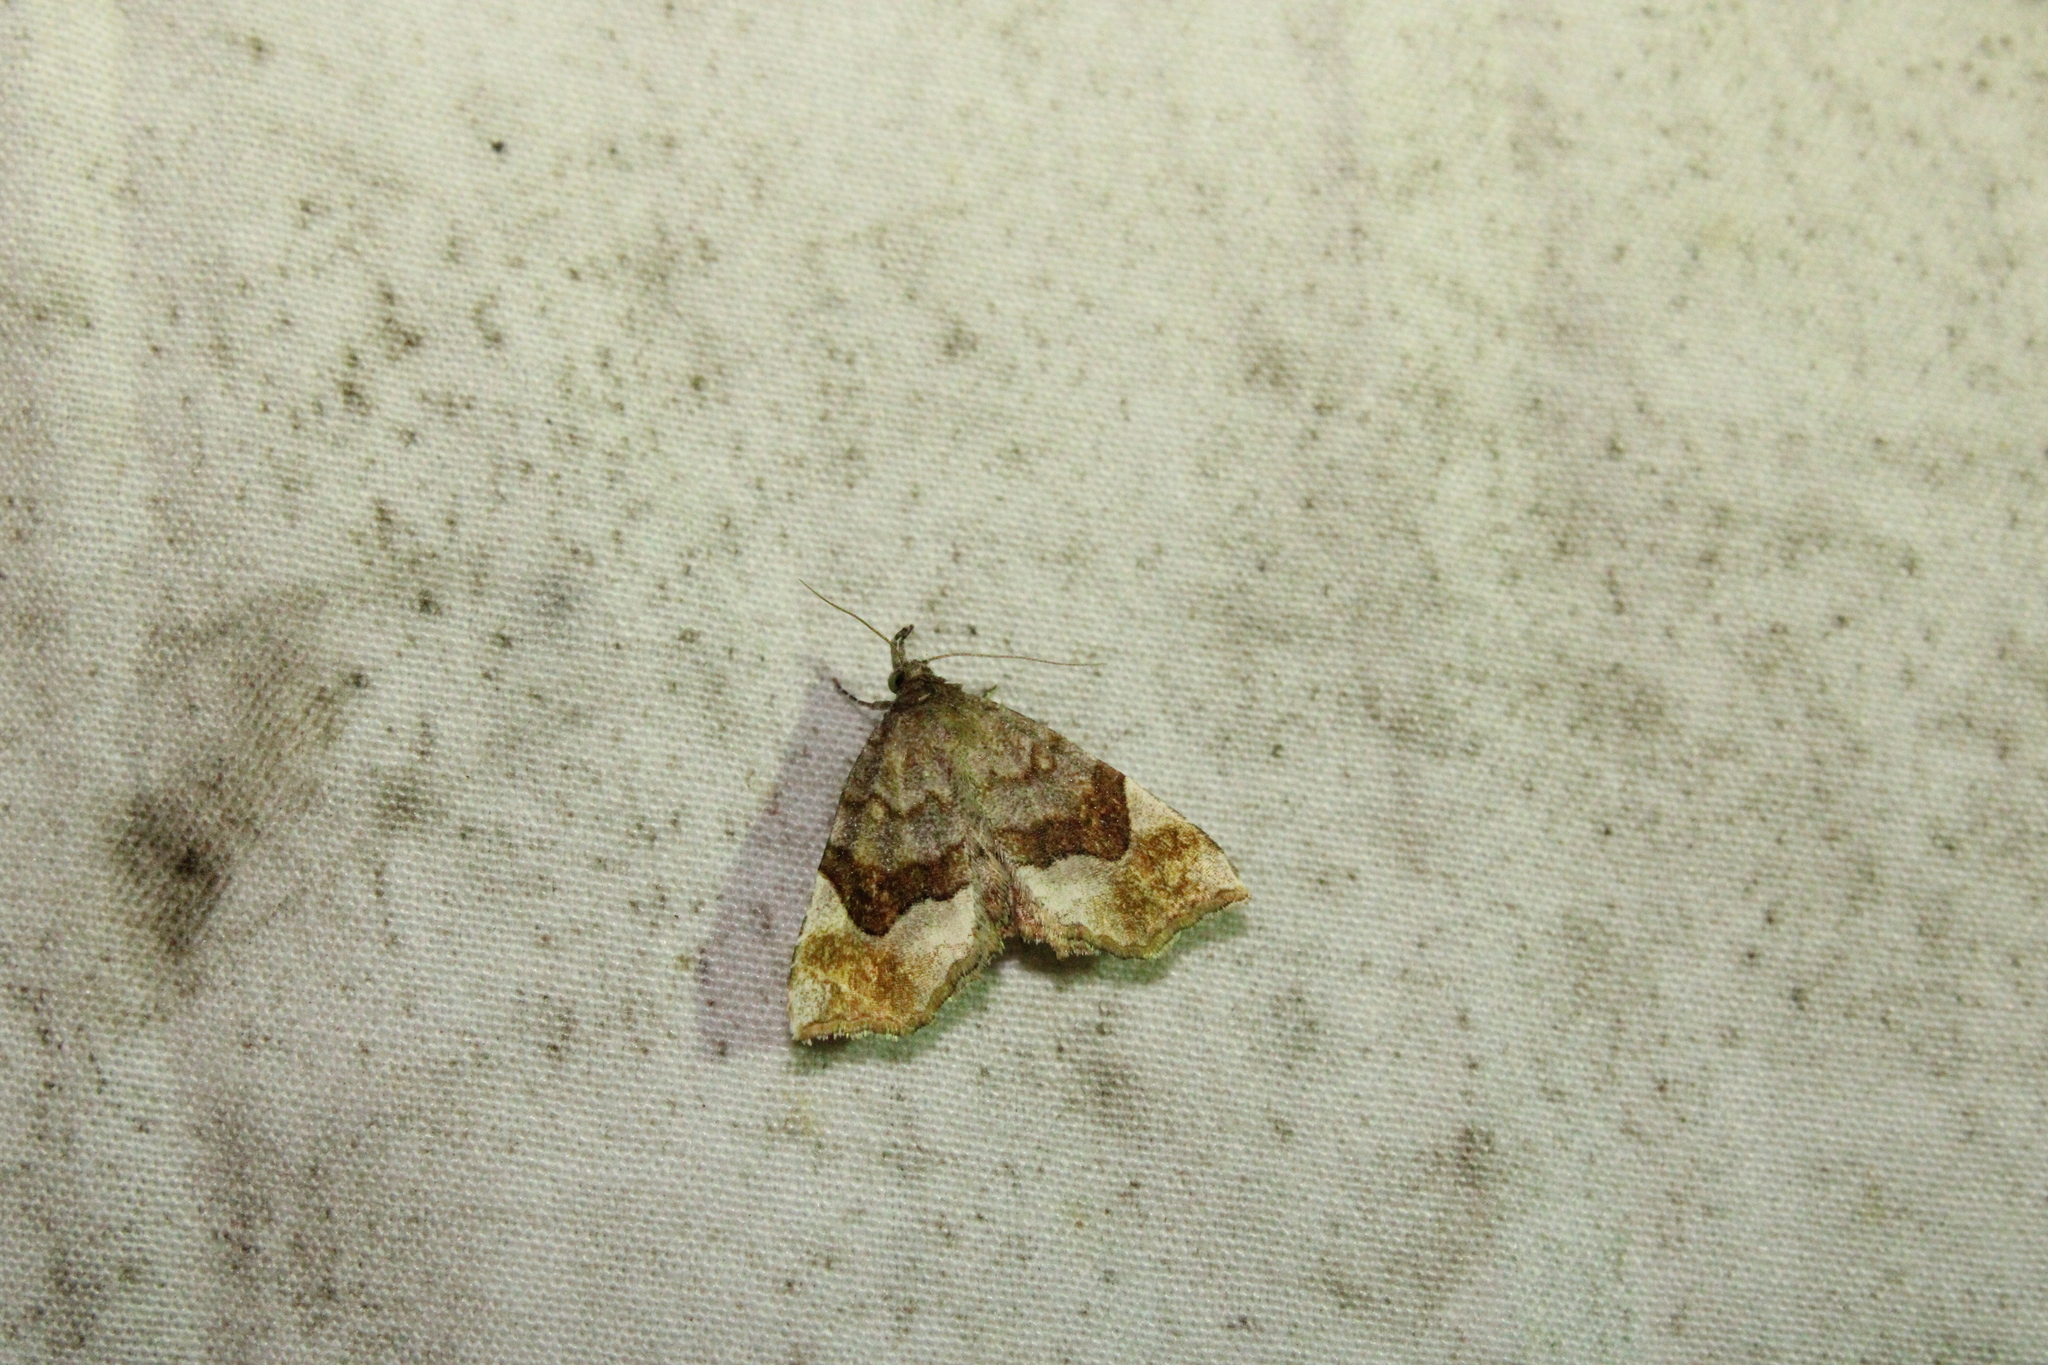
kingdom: Animalia
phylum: Arthropoda
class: Insecta
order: Lepidoptera
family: Erebidae
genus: Pangrapta
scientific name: Pangrapta decoralis
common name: Decorated owlet
